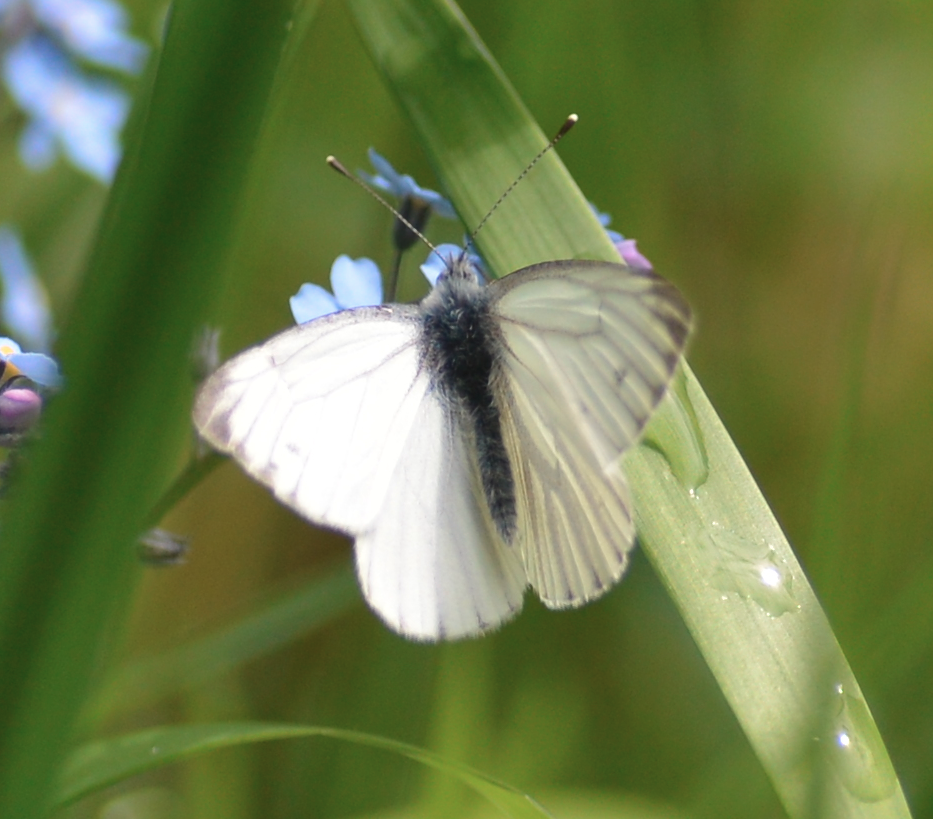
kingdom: Animalia
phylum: Arthropoda
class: Insecta
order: Lepidoptera
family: Pieridae
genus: Pieris
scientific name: Pieris napi
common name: Green-veined white
